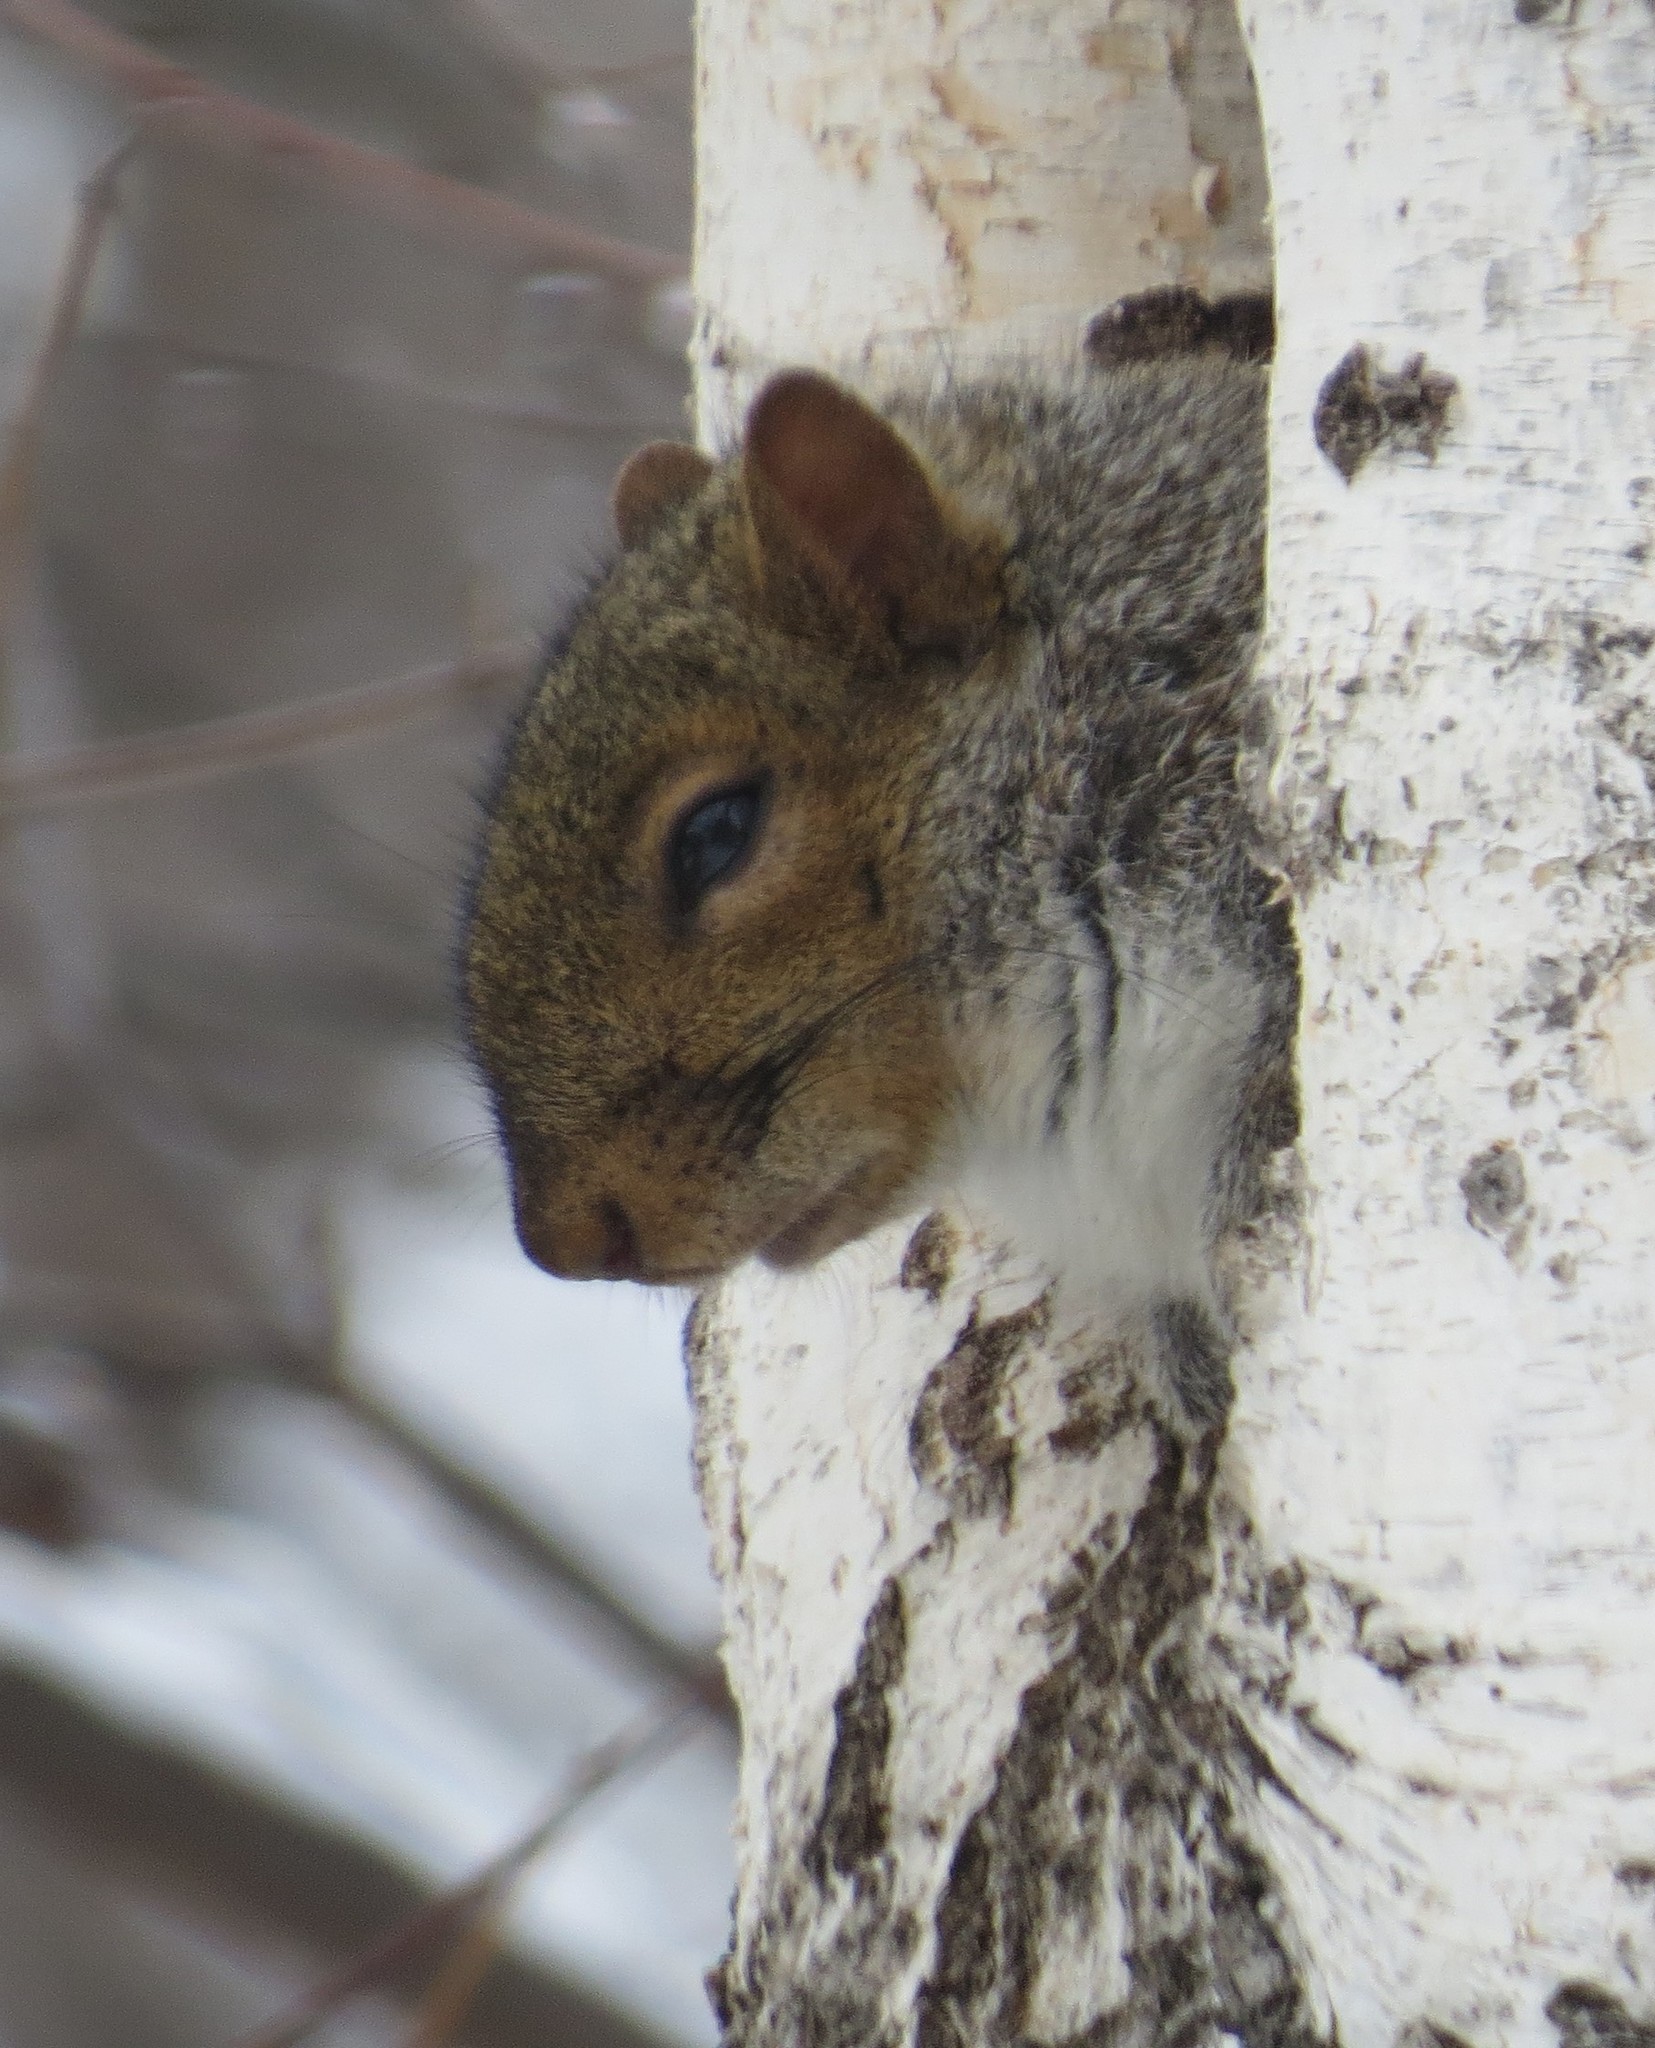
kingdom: Animalia
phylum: Chordata
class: Mammalia
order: Rodentia
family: Sciuridae
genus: Sciurus
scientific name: Sciurus carolinensis
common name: Eastern gray squirrel
